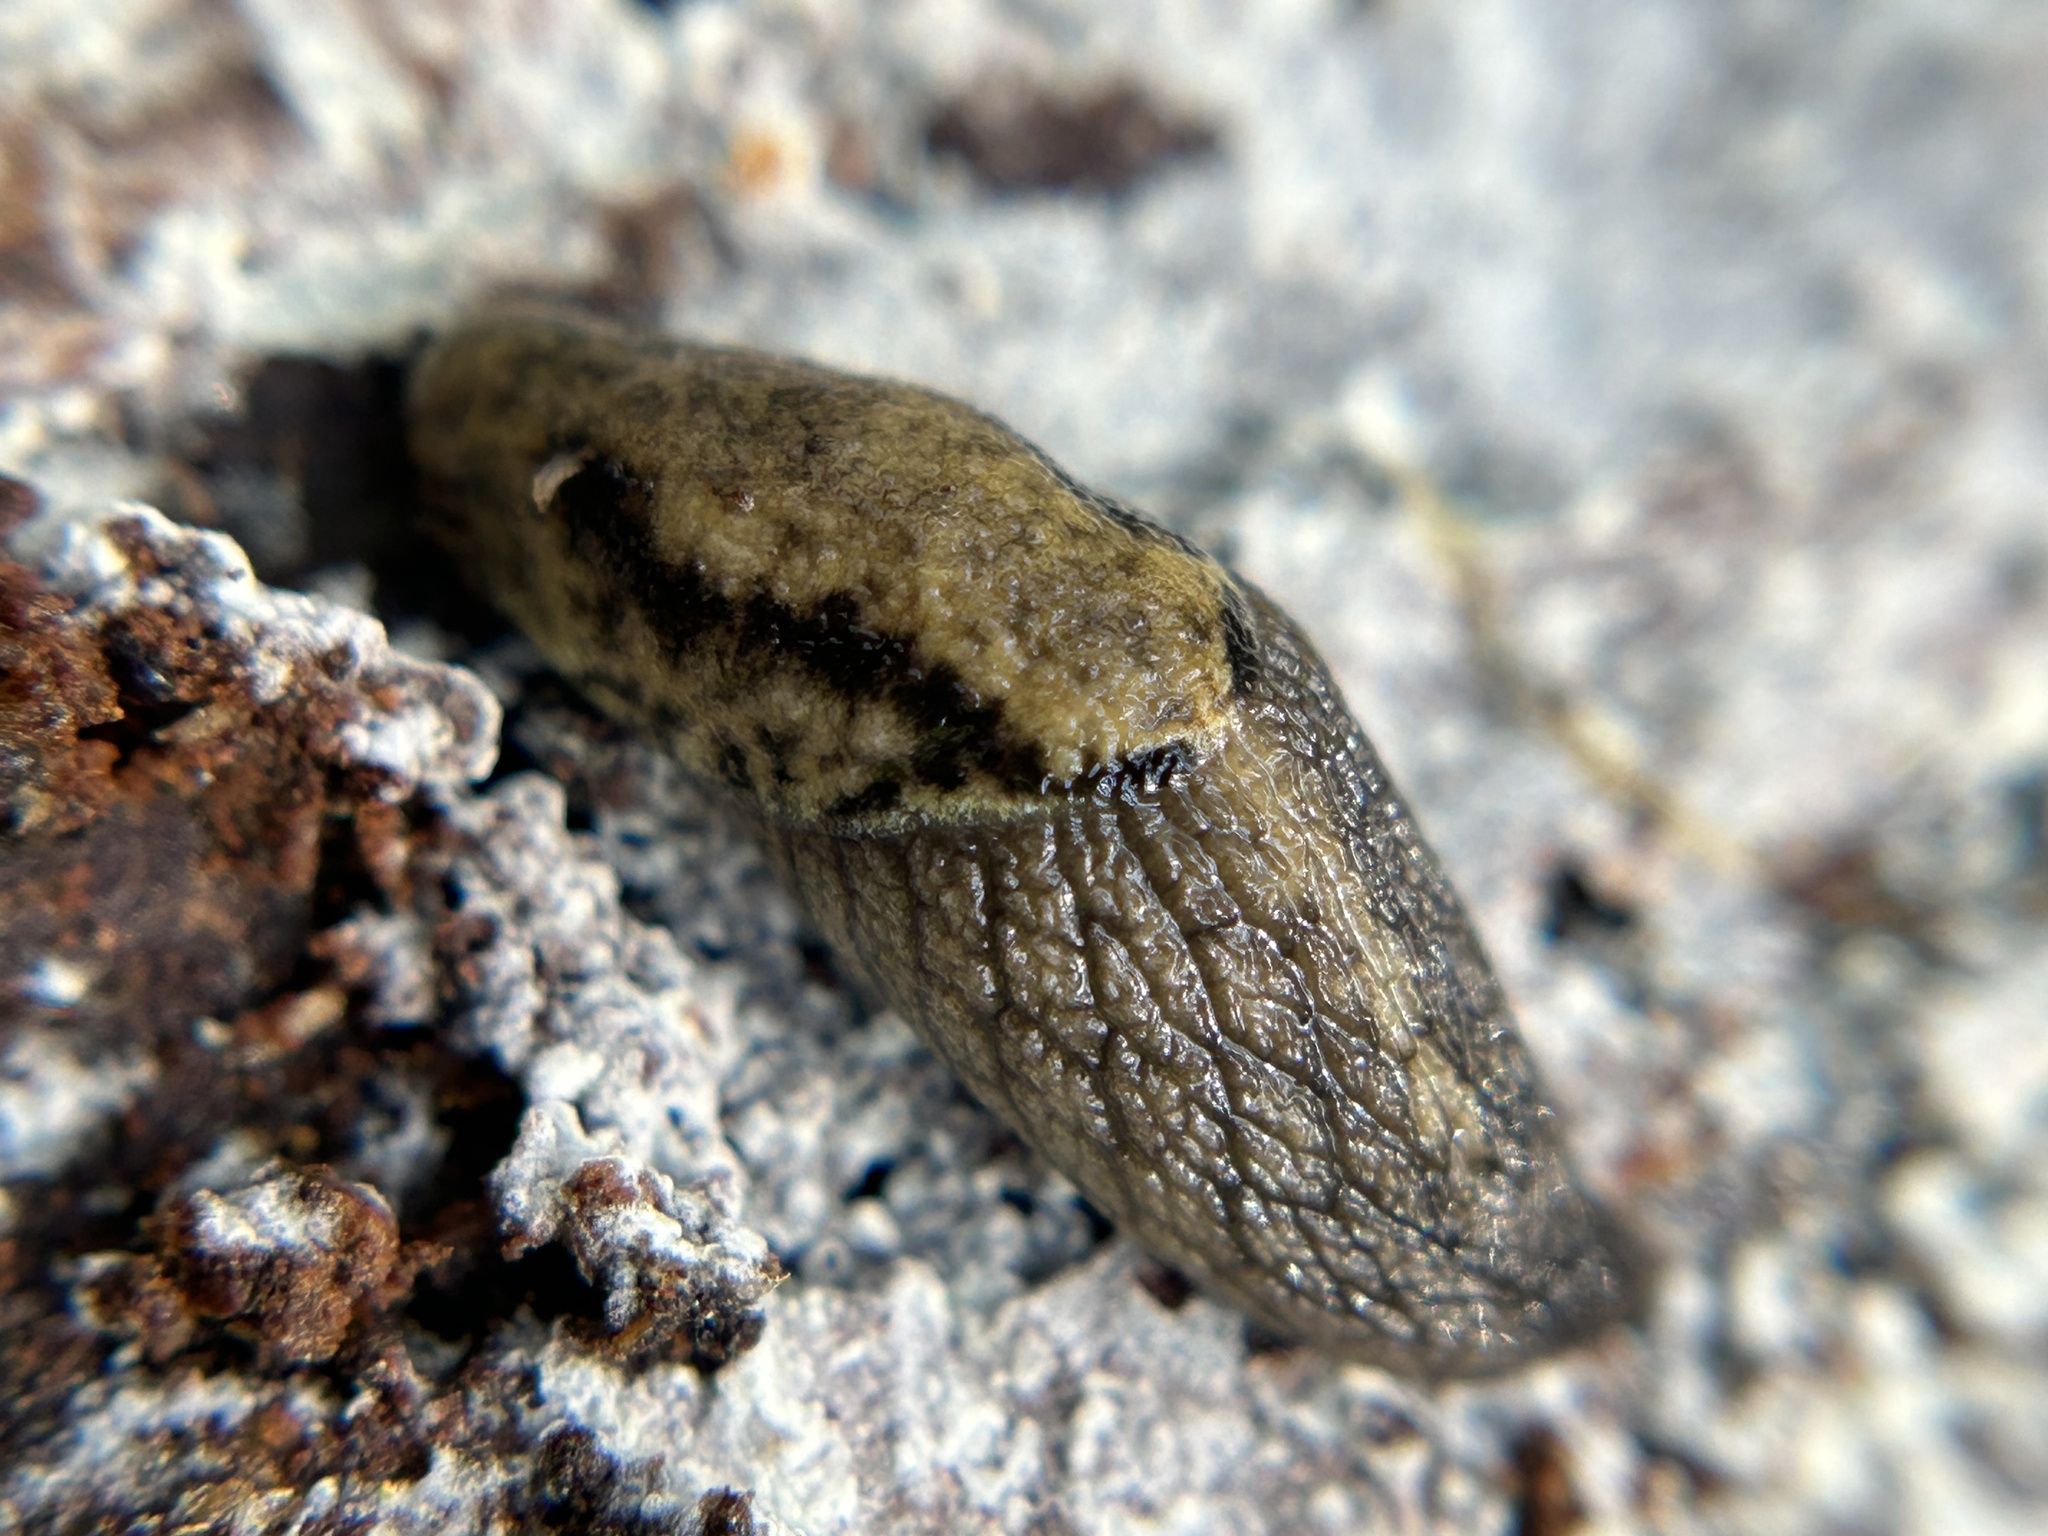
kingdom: Animalia
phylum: Mollusca
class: Gastropoda
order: Stylommatophora
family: Ariolimacidae
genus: Prophysaon
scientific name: Prophysaon andersonii
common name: Reticulate taildropper
